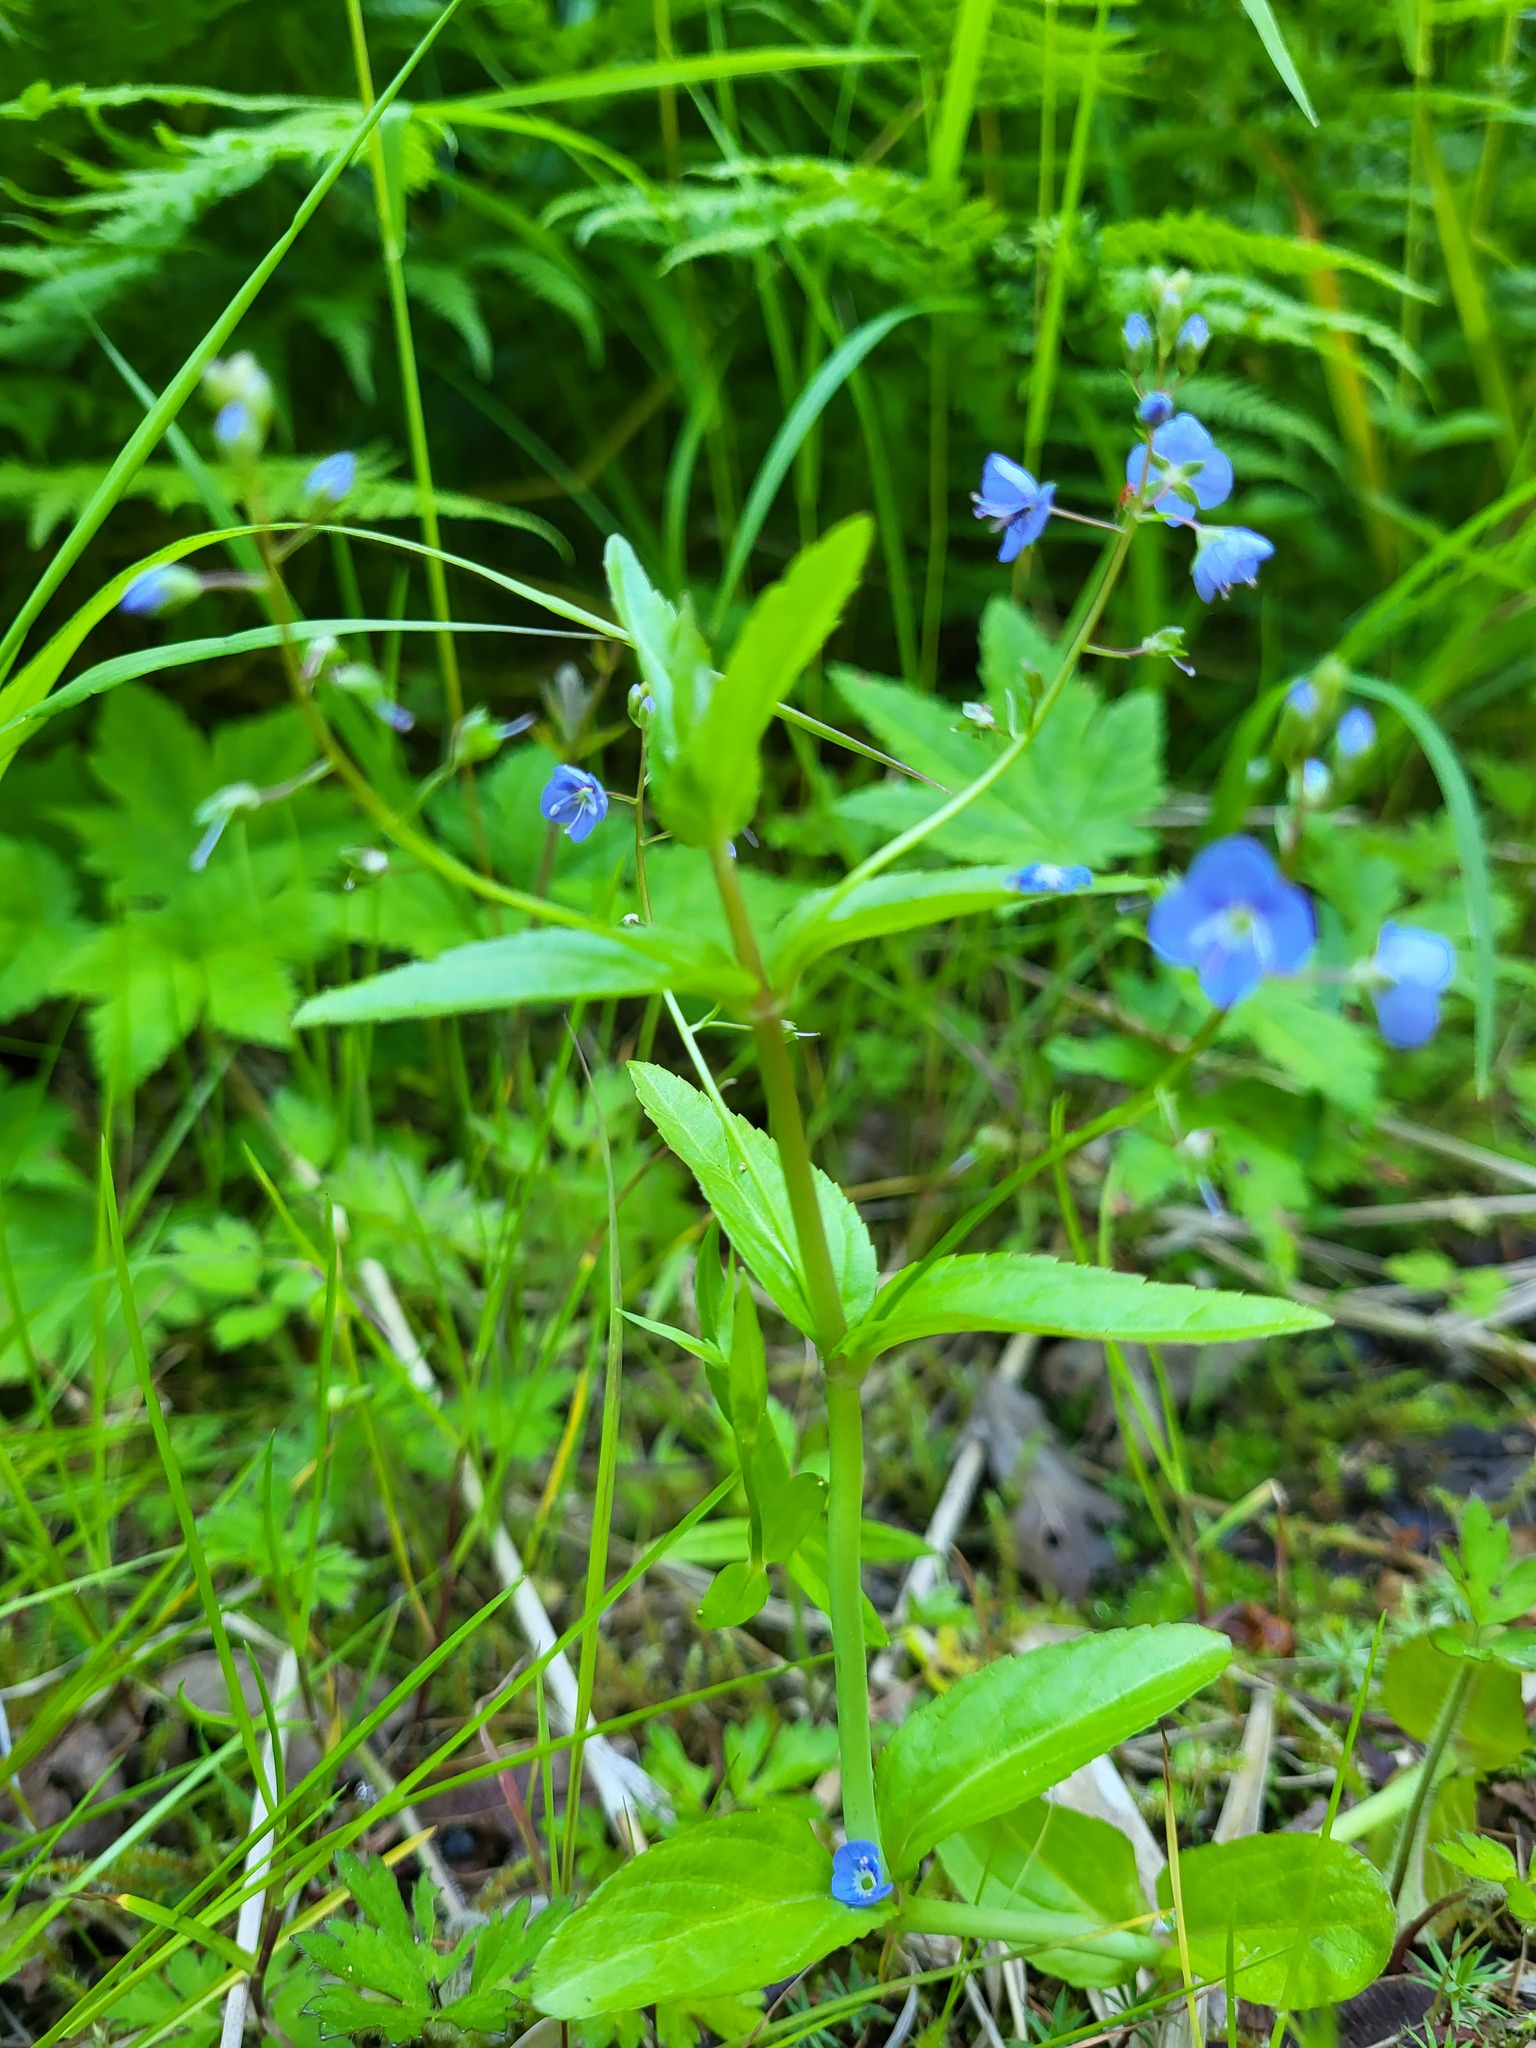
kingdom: Plantae
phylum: Tracheophyta
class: Magnoliopsida
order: Lamiales
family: Plantaginaceae
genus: Veronica
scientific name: Veronica americana
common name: American brooklime
